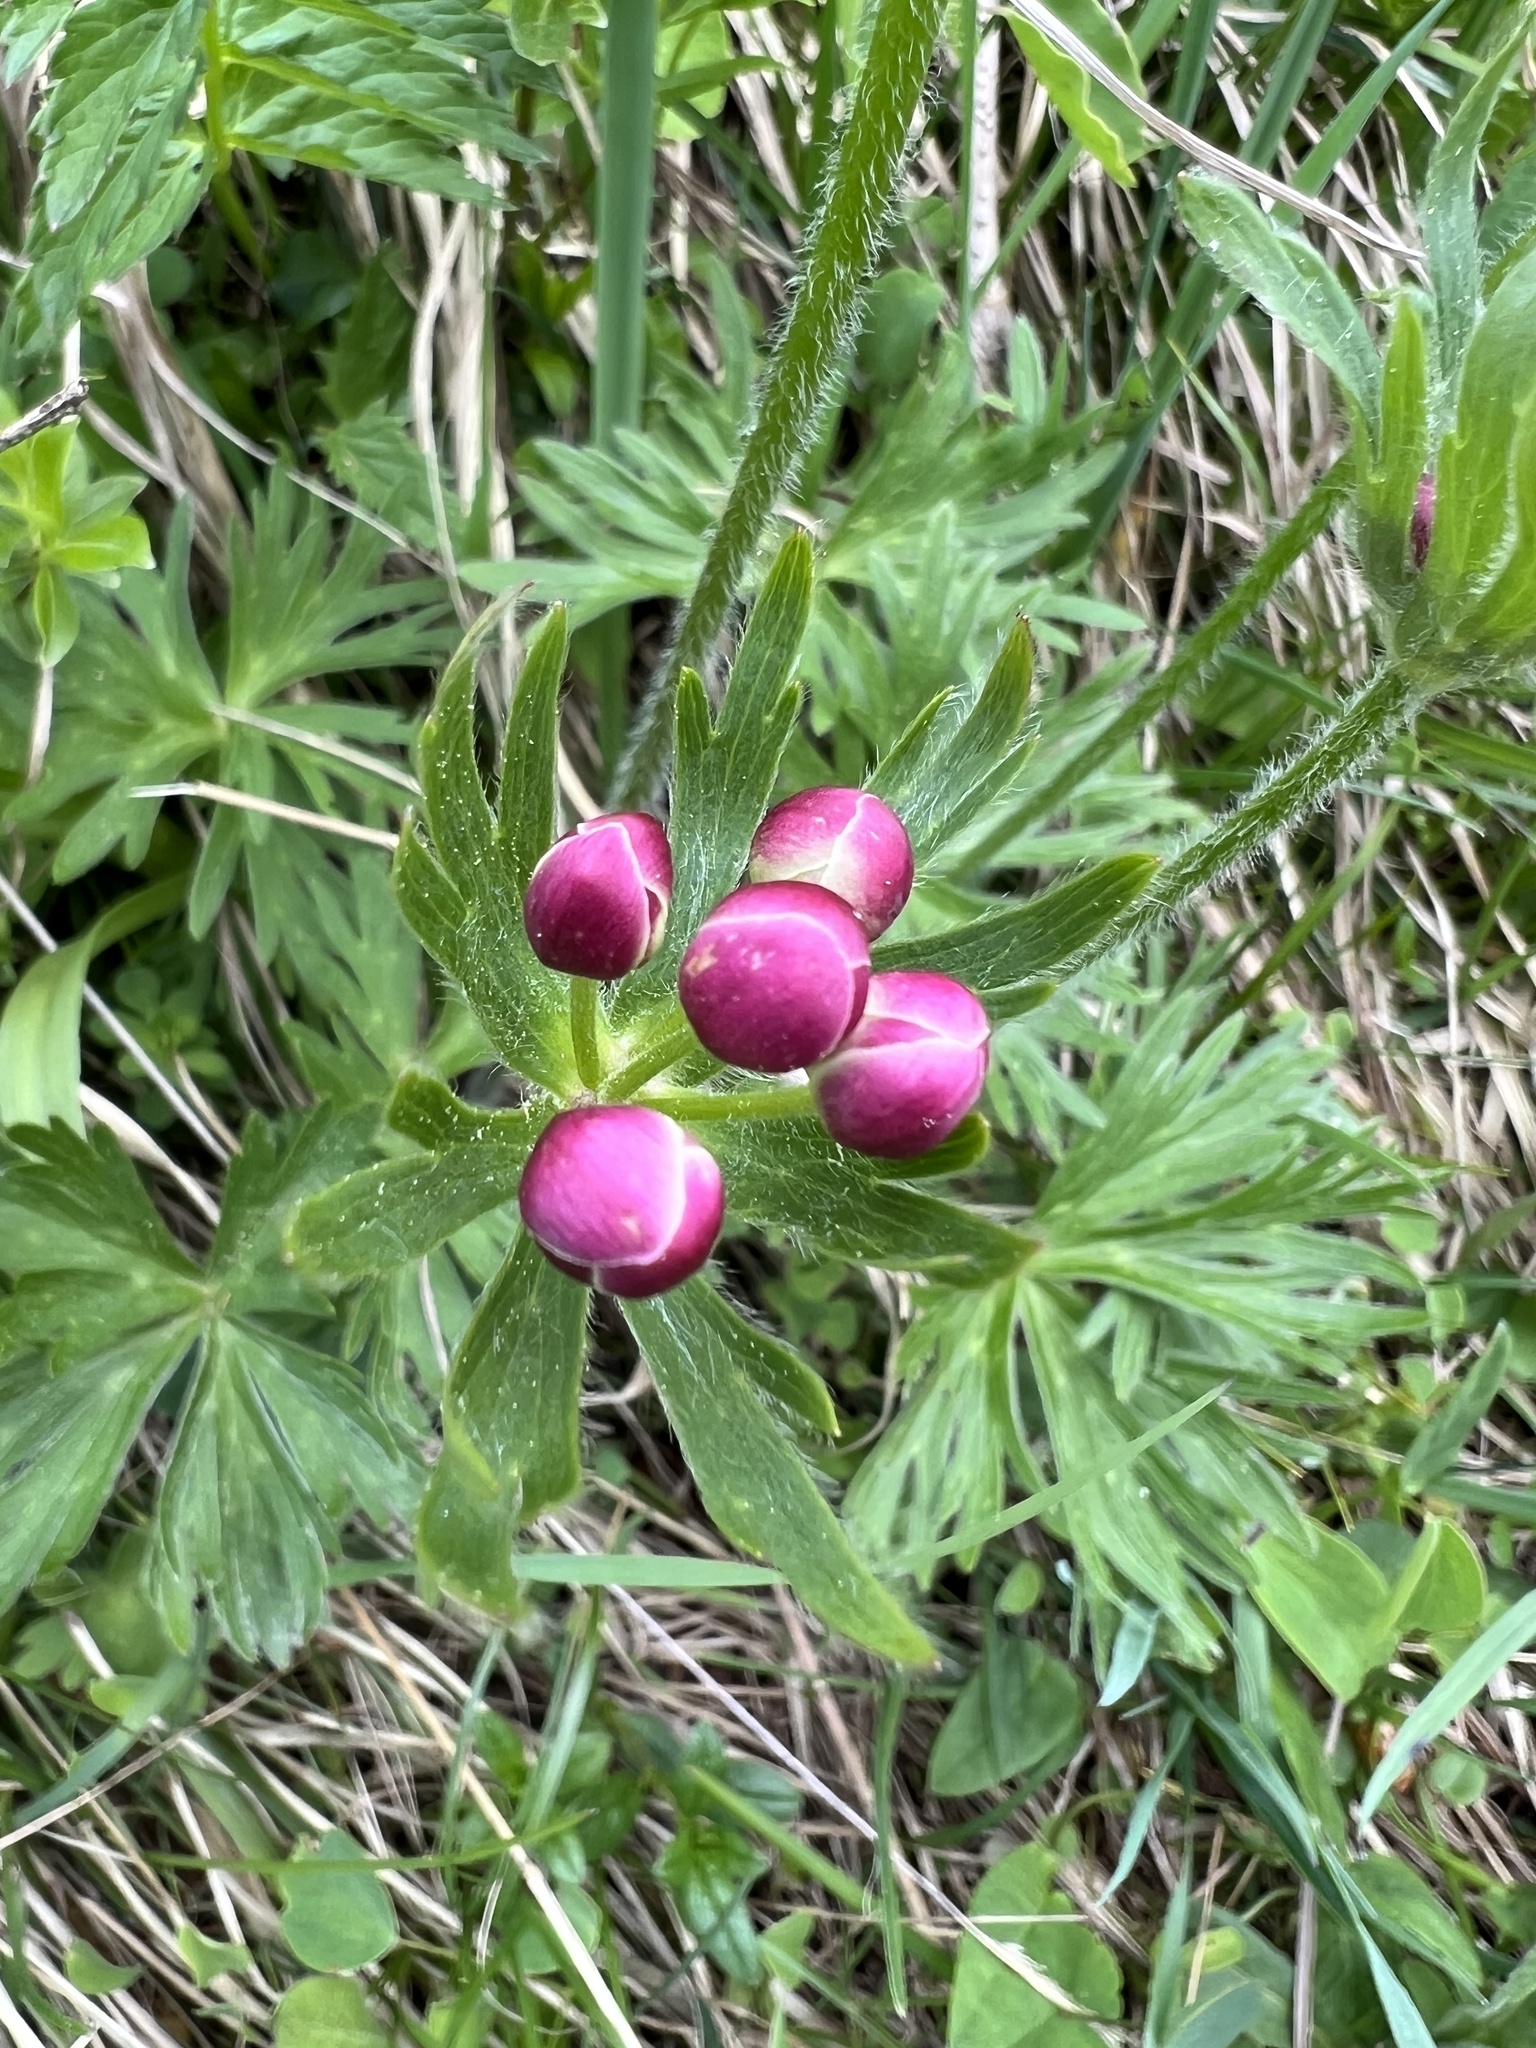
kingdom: Plantae
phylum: Tracheophyta
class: Magnoliopsida
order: Ranunculales
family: Ranunculaceae
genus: Anemonastrum
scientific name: Anemonastrum narcissiflorum
